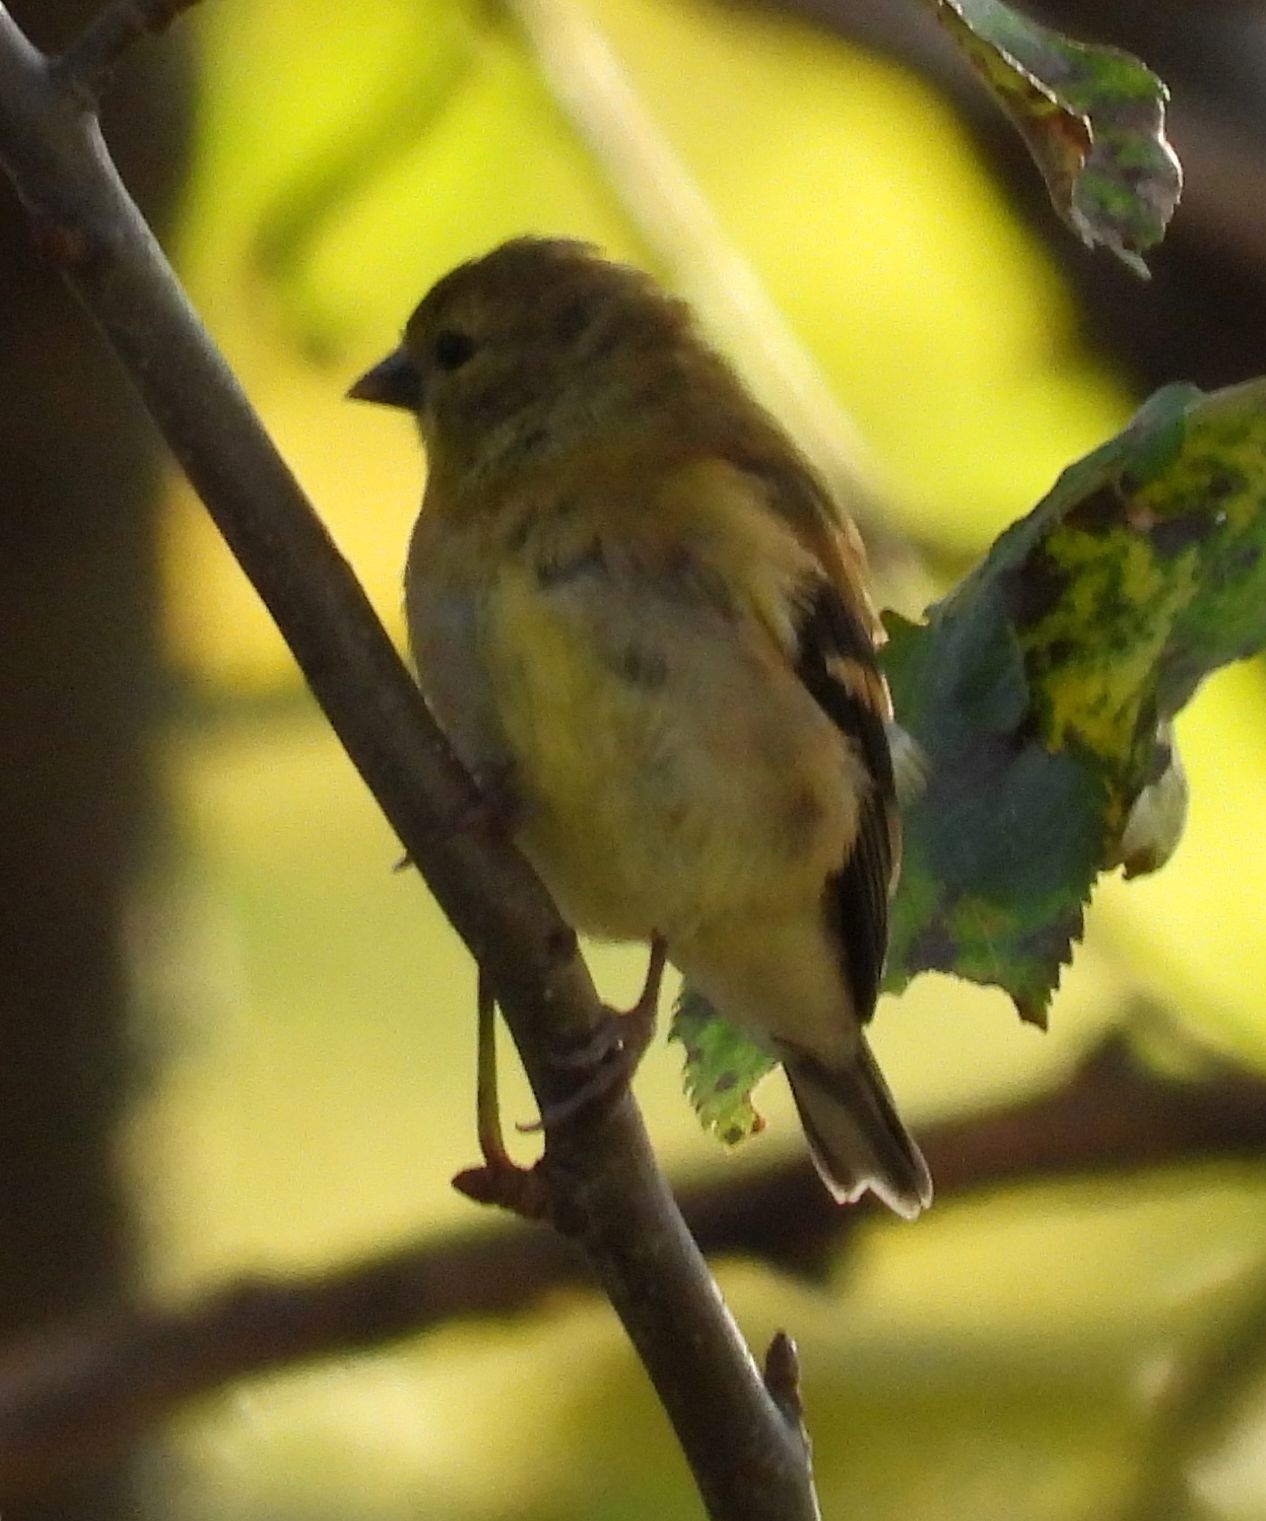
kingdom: Animalia
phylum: Chordata
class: Aves
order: Passeriformes
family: Fringillidae
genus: Spinus
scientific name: Spinus tristis
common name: American goldfinch
